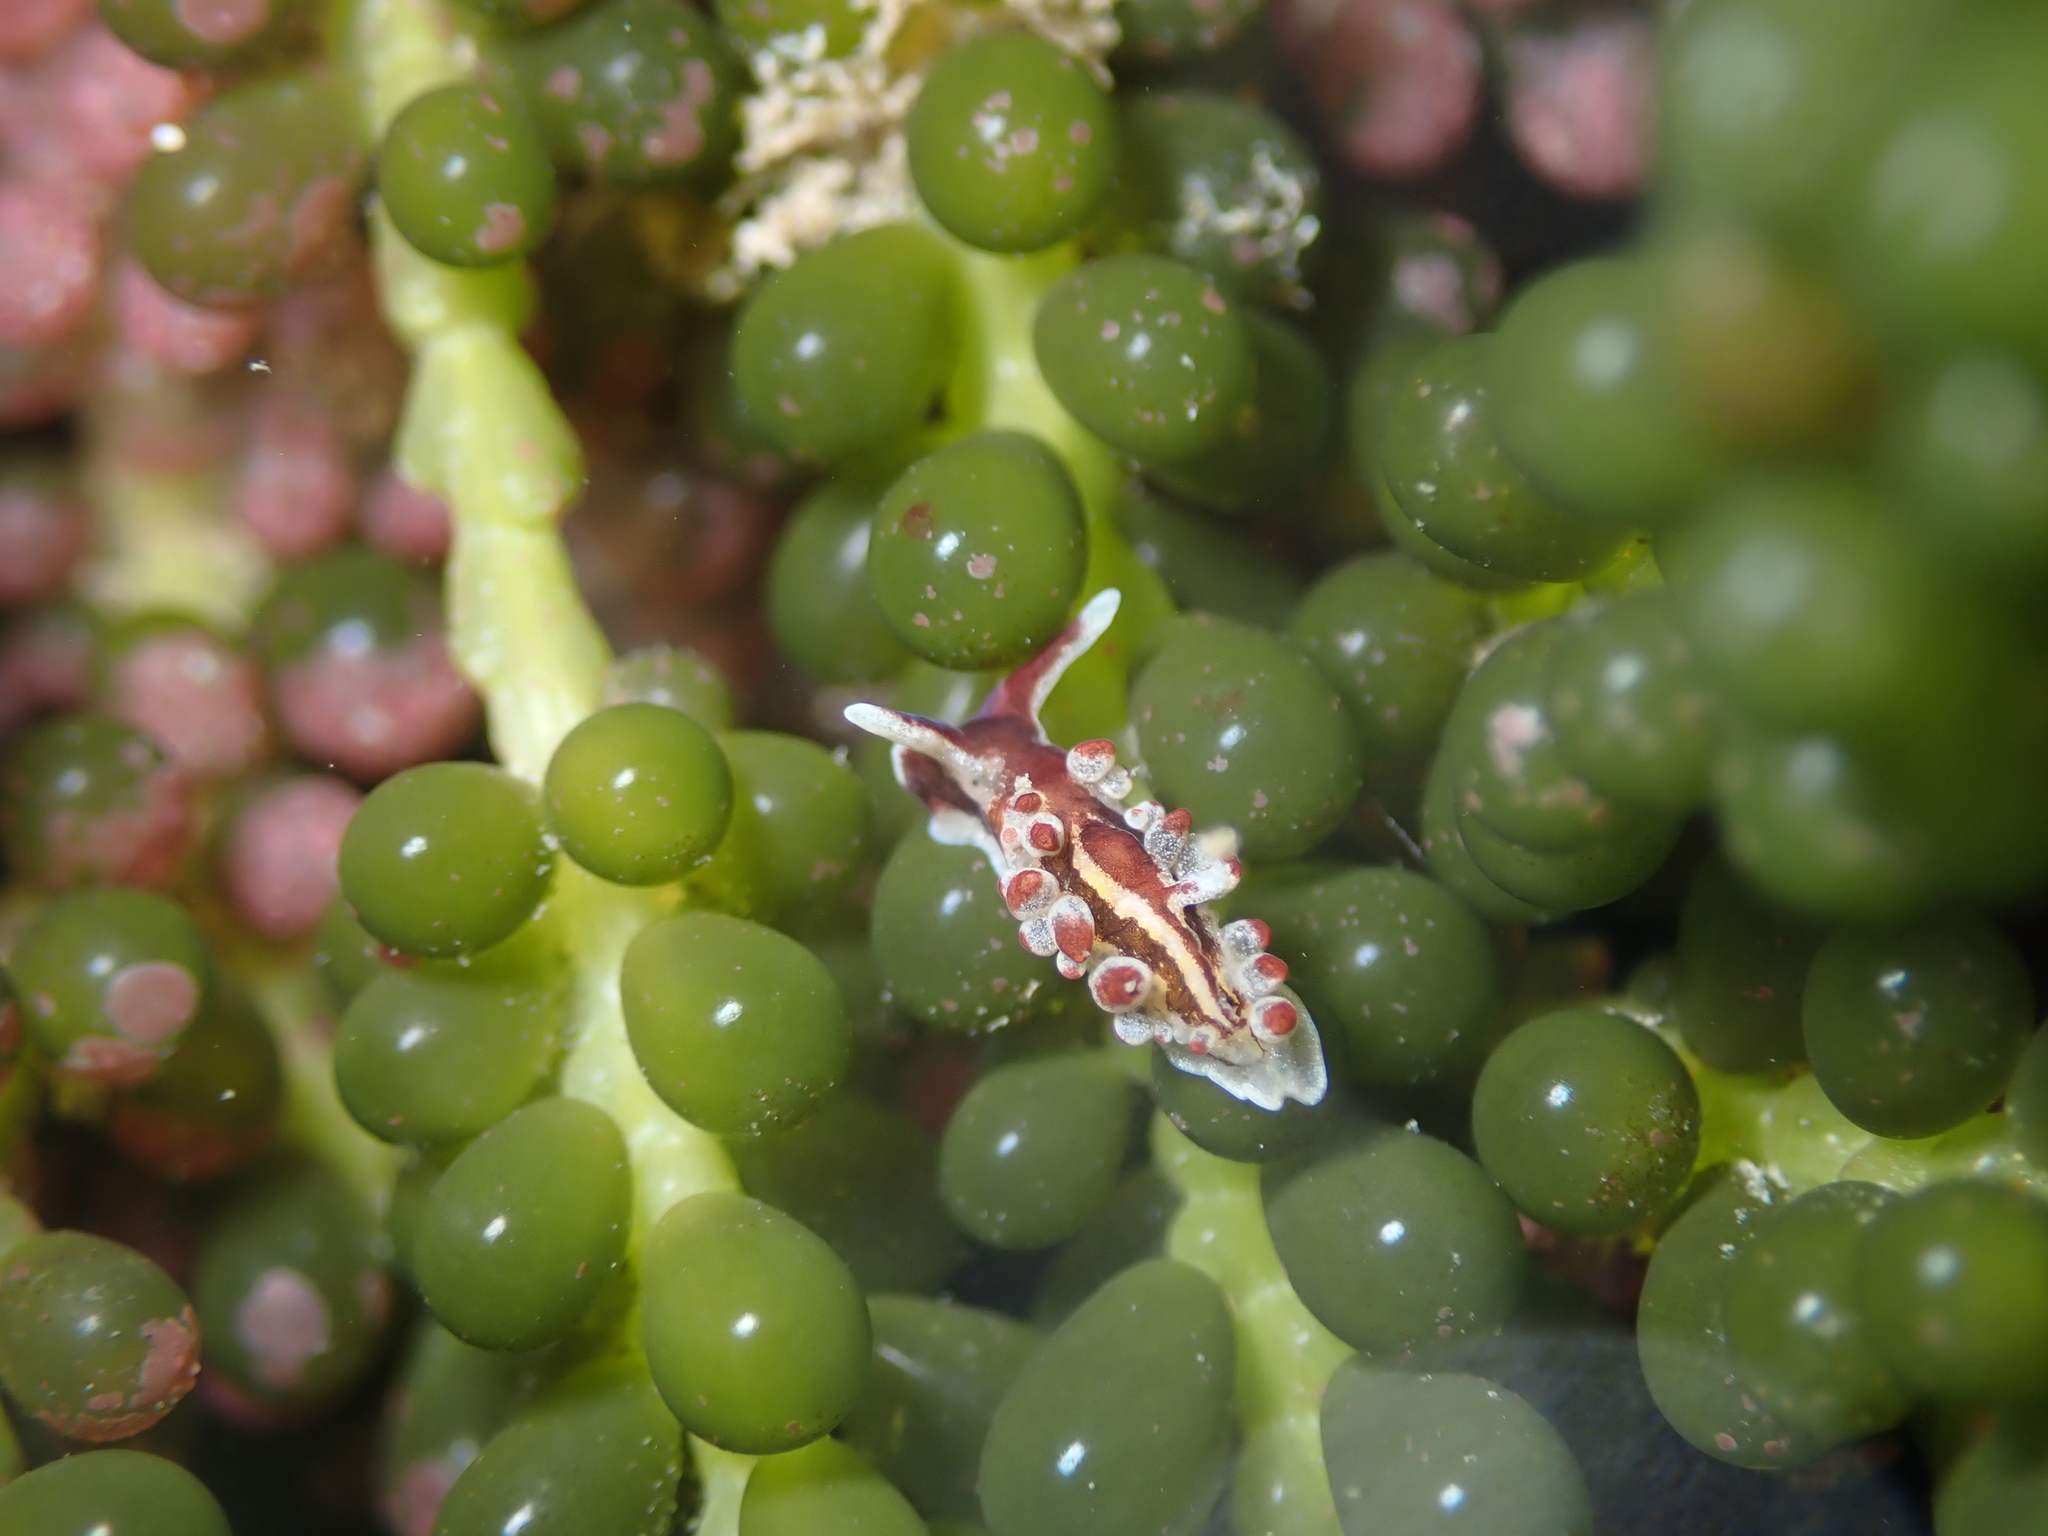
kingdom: Animalia
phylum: Mollusca
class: Gastropoda
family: Limapontiidae
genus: Ercolania
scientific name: Ercolania margaritae
